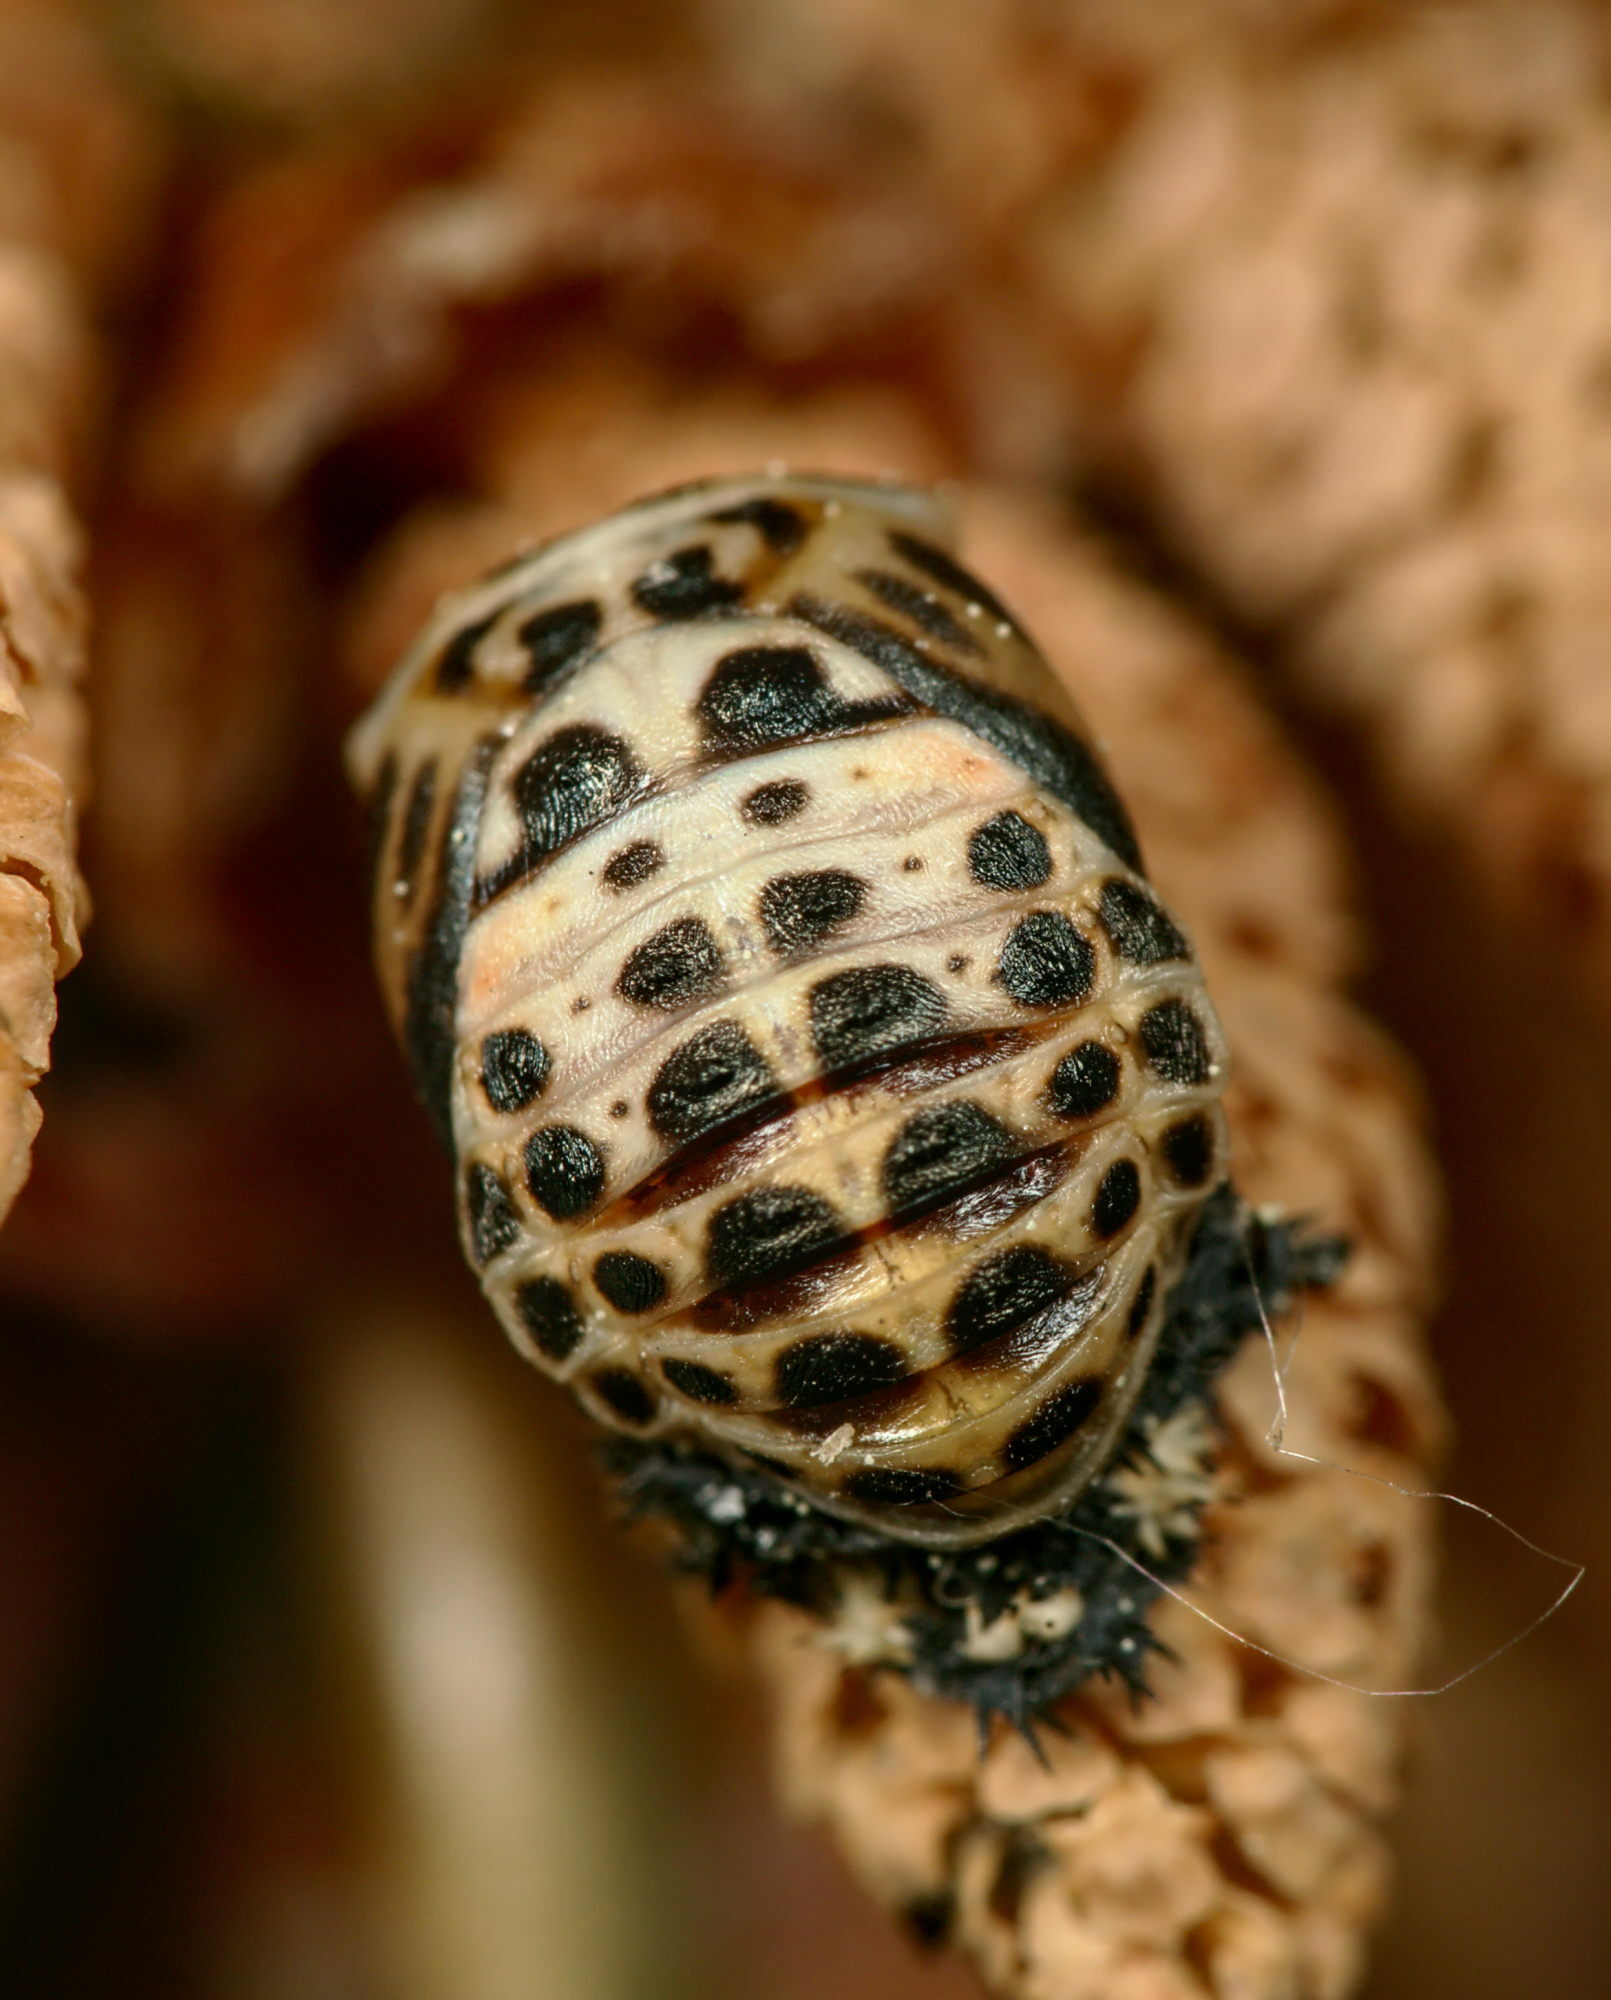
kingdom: Animalia
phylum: Arthropoda
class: Insecta
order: Coleoptera
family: Coccinellidae
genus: Harmonia
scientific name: Harmonia quadripunctata
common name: Cream-streaked ladybird
